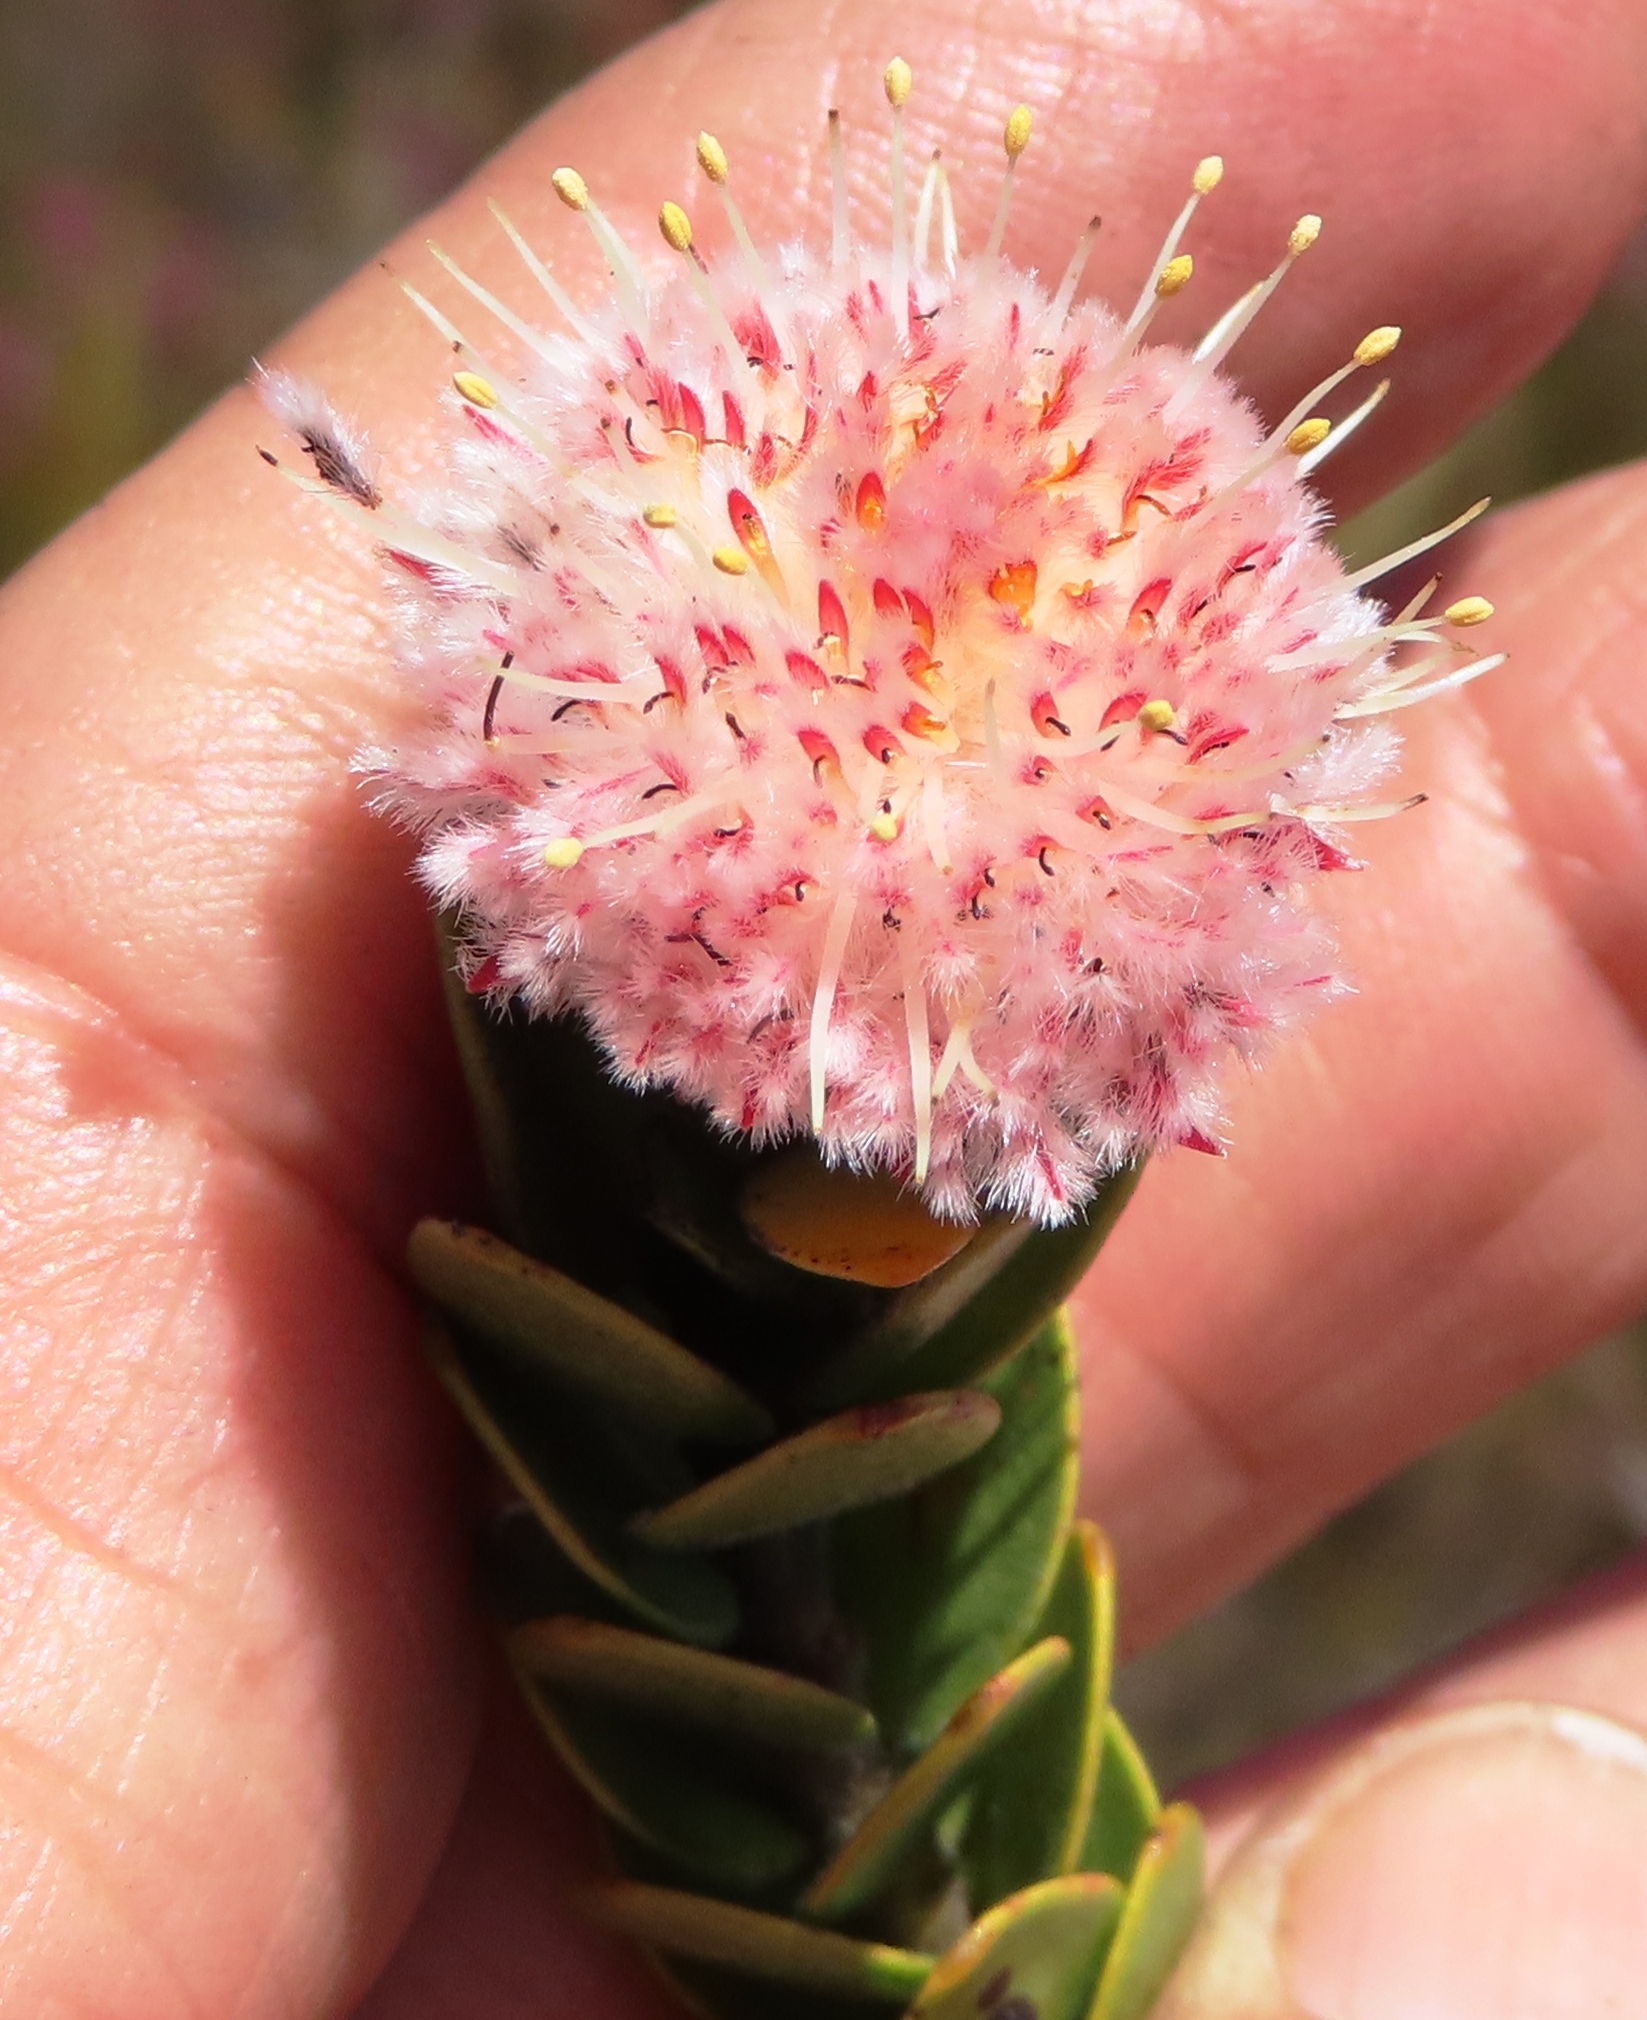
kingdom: Plantae
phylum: Tracheophyta
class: Magnoliopsida
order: Proteales
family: Proteaceae
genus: Diastella
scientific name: Diastella thymelaeoides
